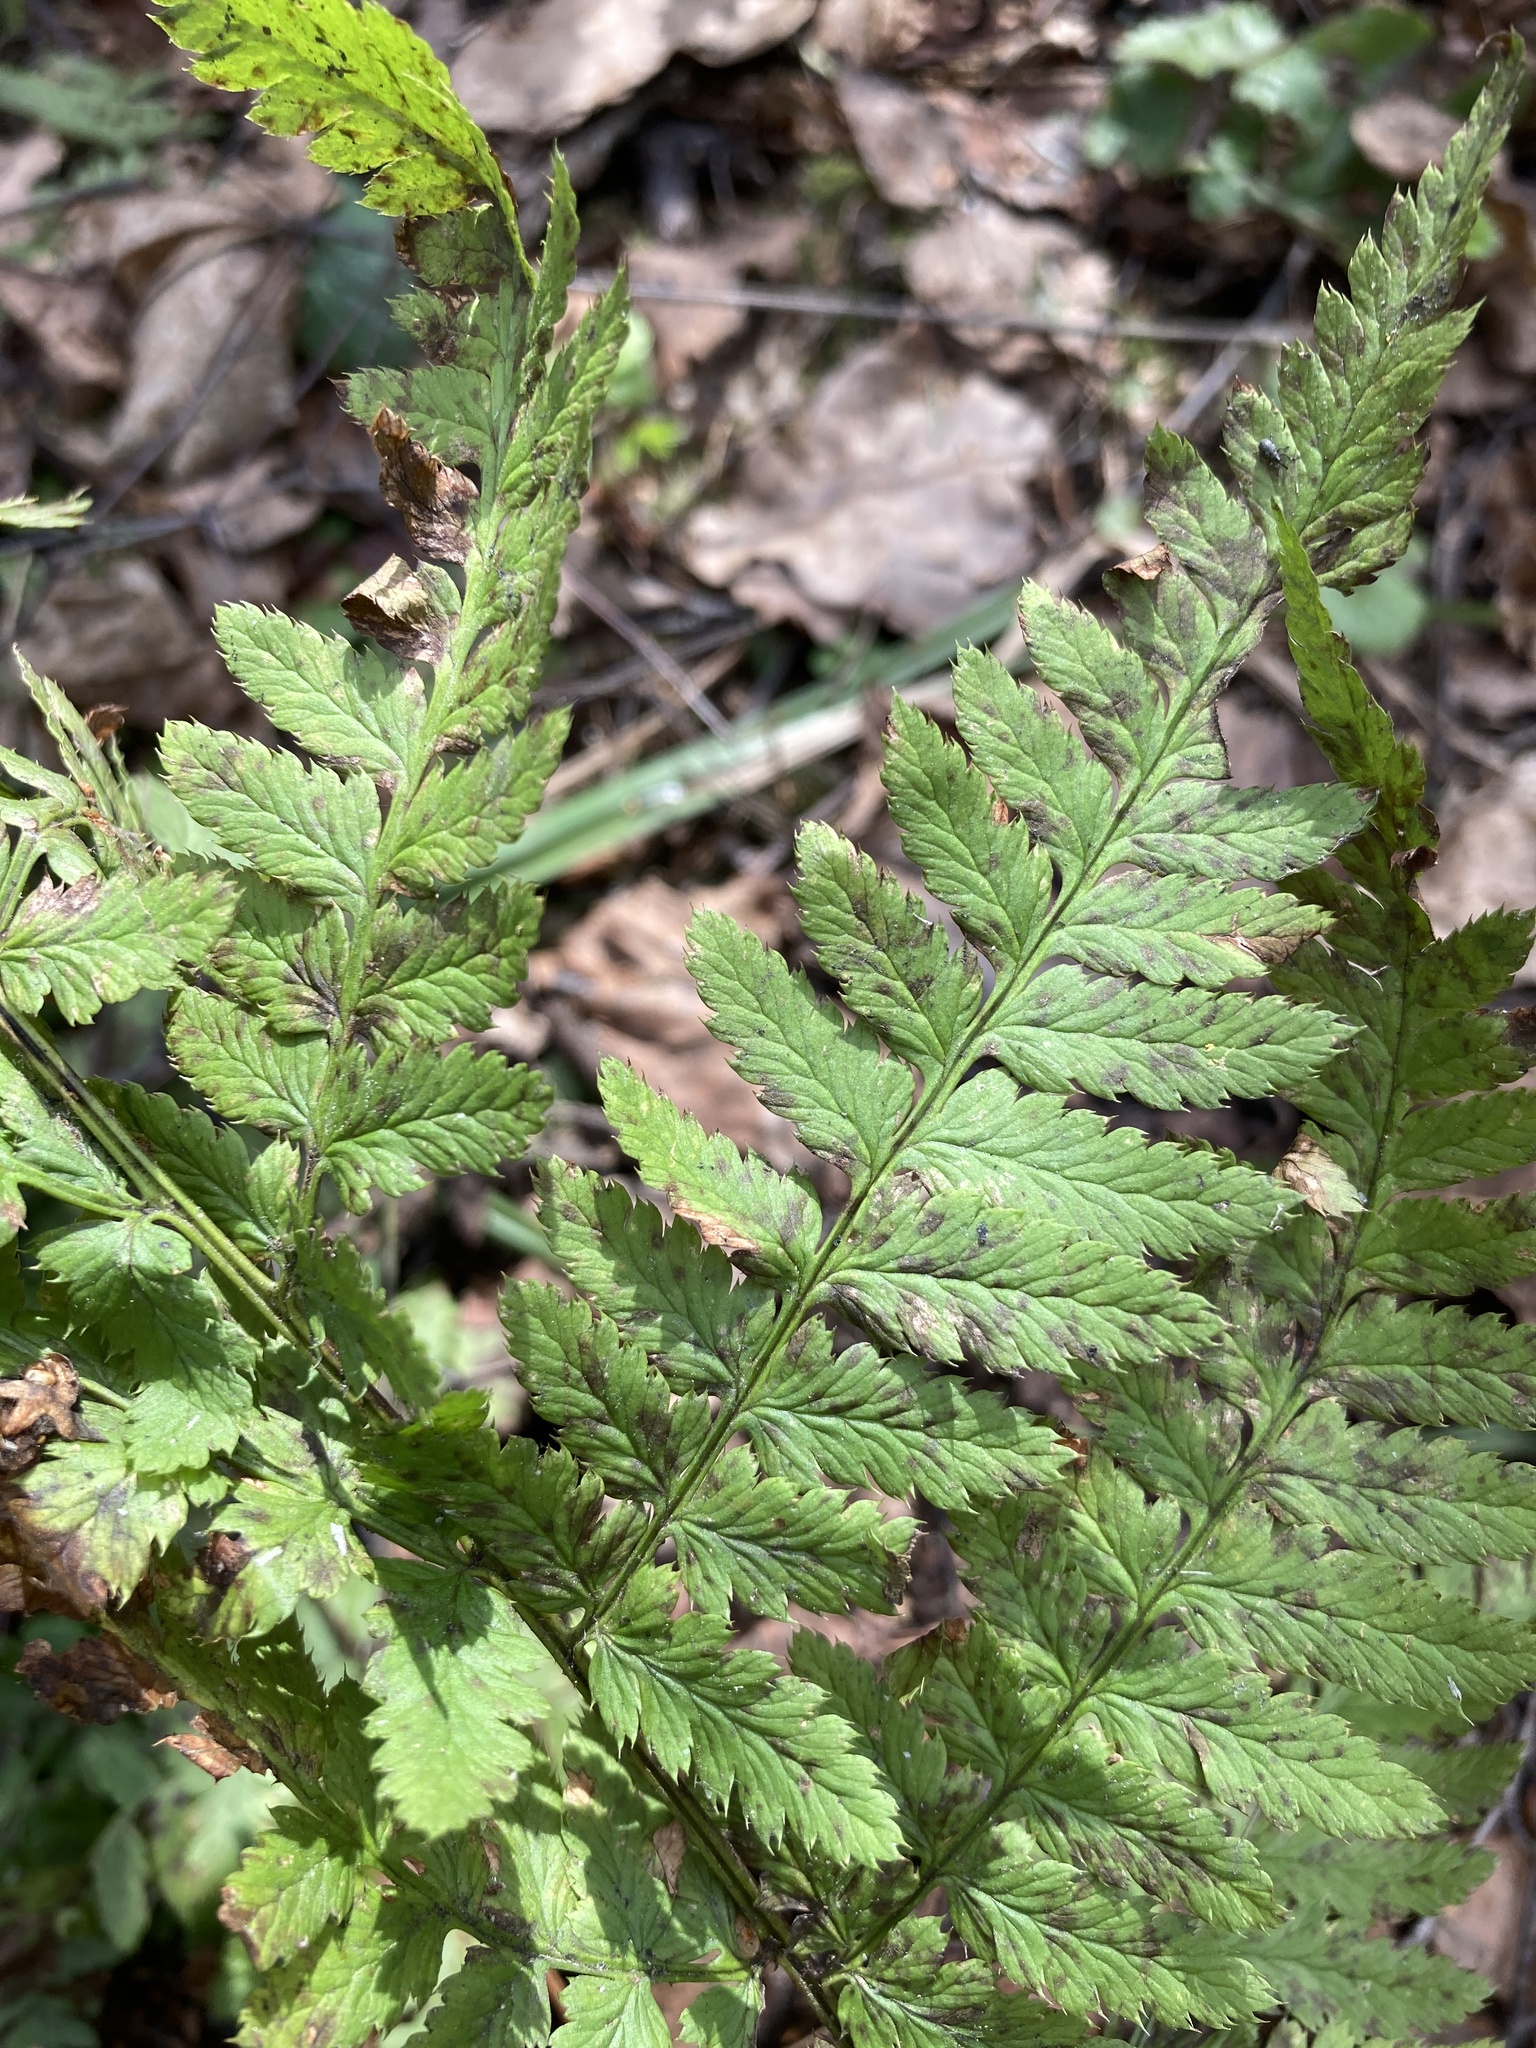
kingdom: Plantae
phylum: Tracheophyta
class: Polypodiopsida
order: Polypodiales
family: Dryopteridaceae
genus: Dryopteris
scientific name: Dryopteris carthusiana
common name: Narrow buckler-fern
